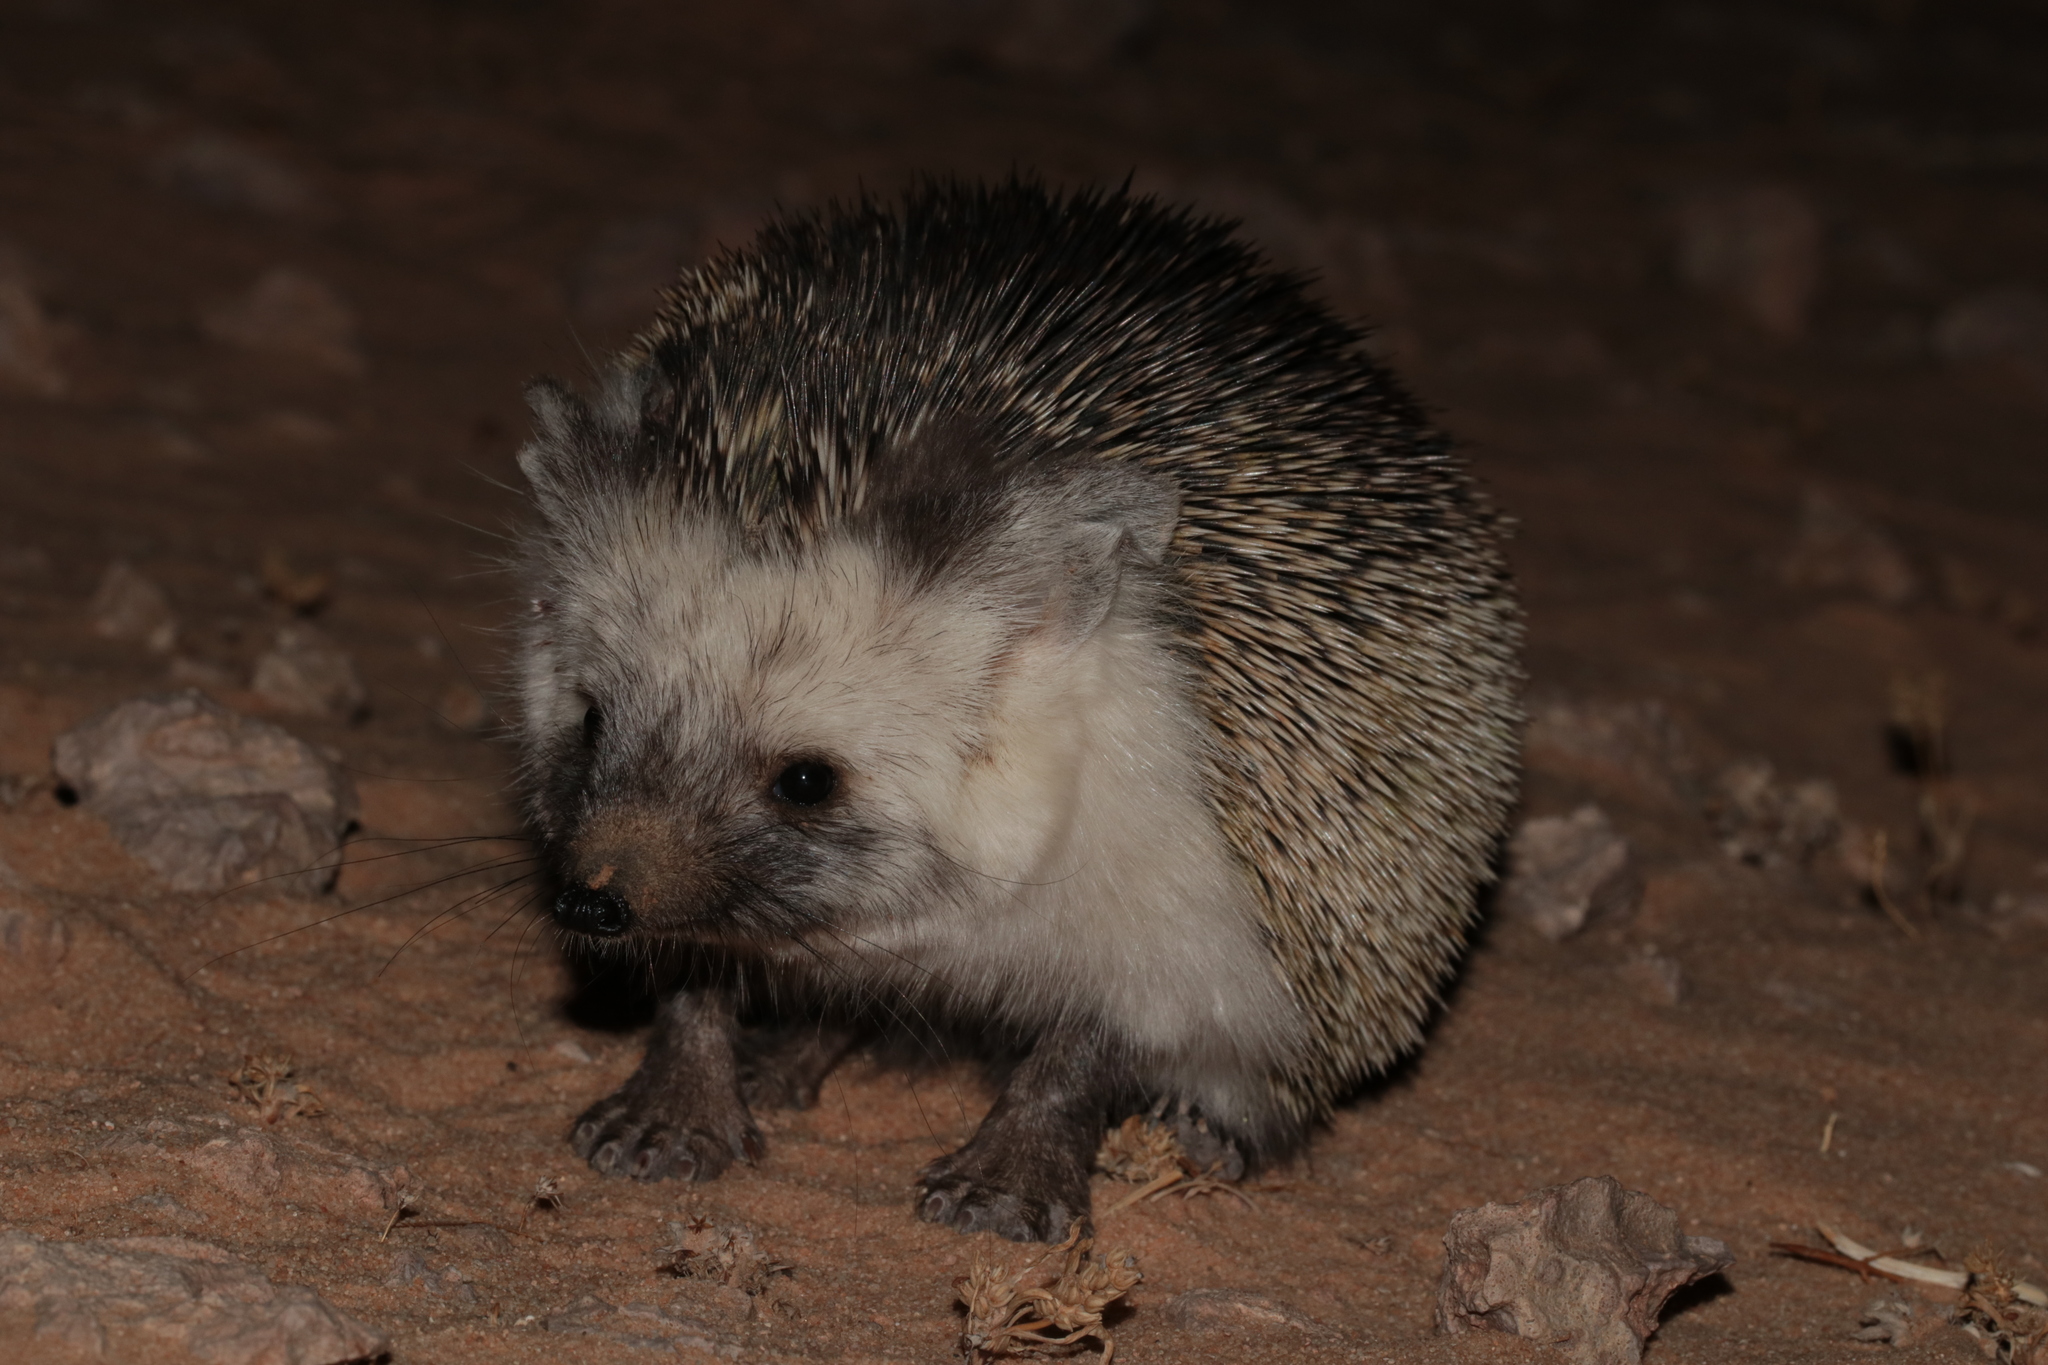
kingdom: Animalia
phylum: Chordata
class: Mammalia
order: Erinaceomorpha
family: Erinaceidae
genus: Paraechinus
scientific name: Paraechinus aethiopicus
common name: Desert hedgehog
